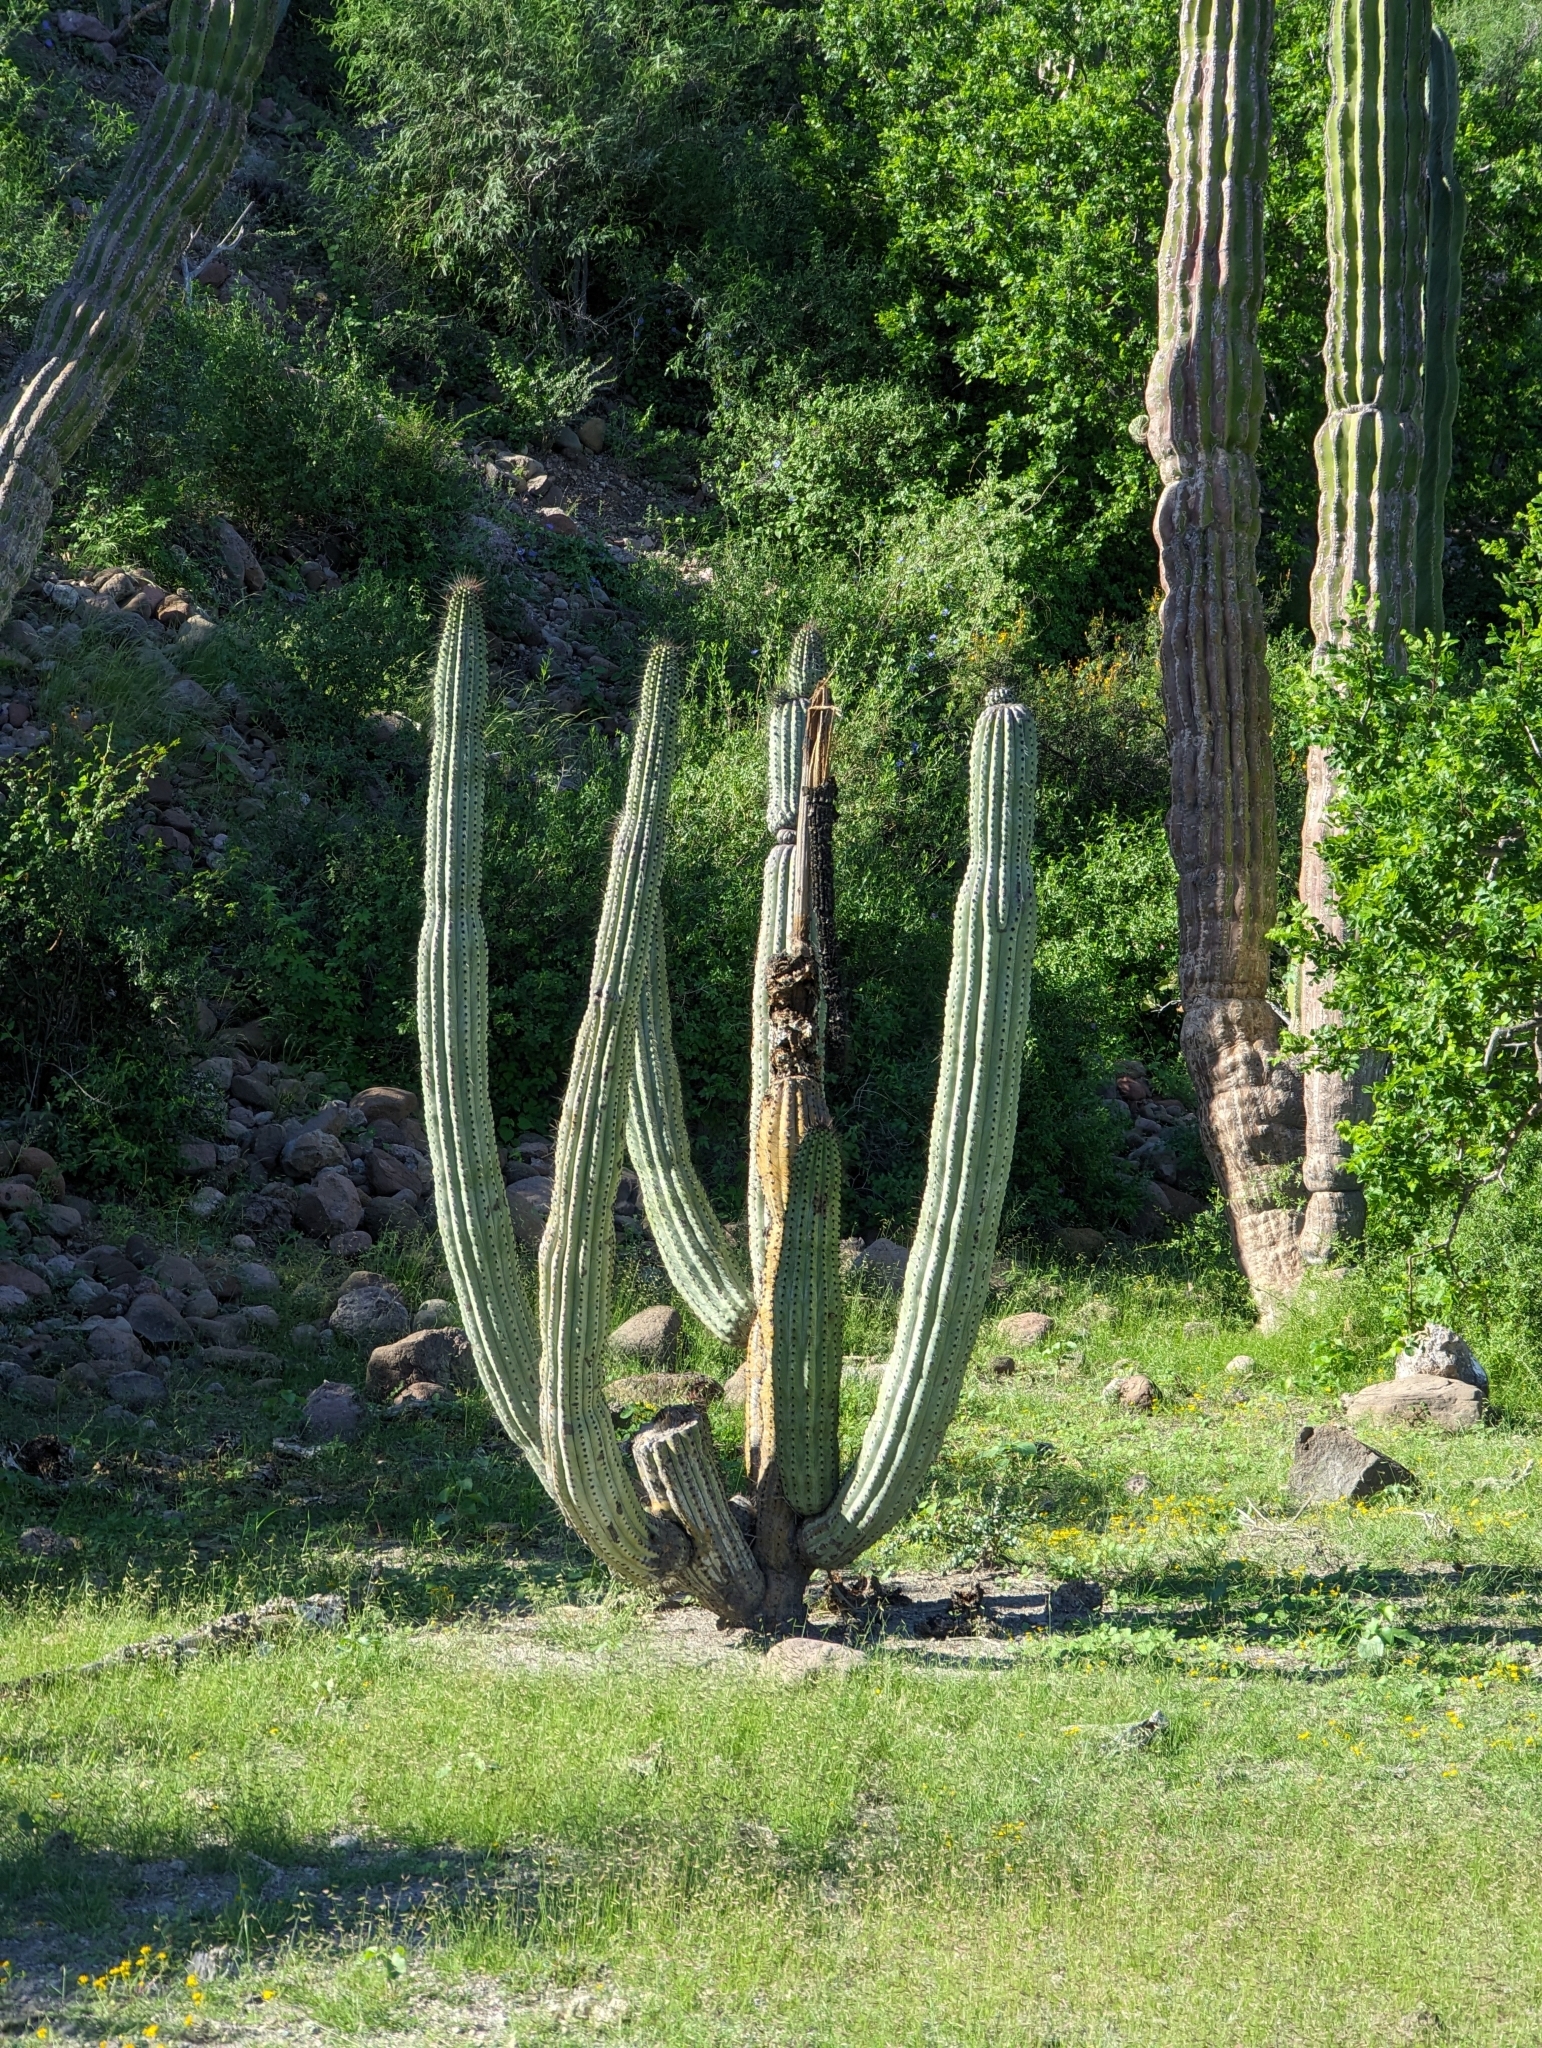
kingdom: Plantae
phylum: Tracheophyta
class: Magnoliopsida
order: Caryophyllales
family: Cactaceae
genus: Stenocereus
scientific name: Stenocereus thurberi
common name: Organ pipe cactus
